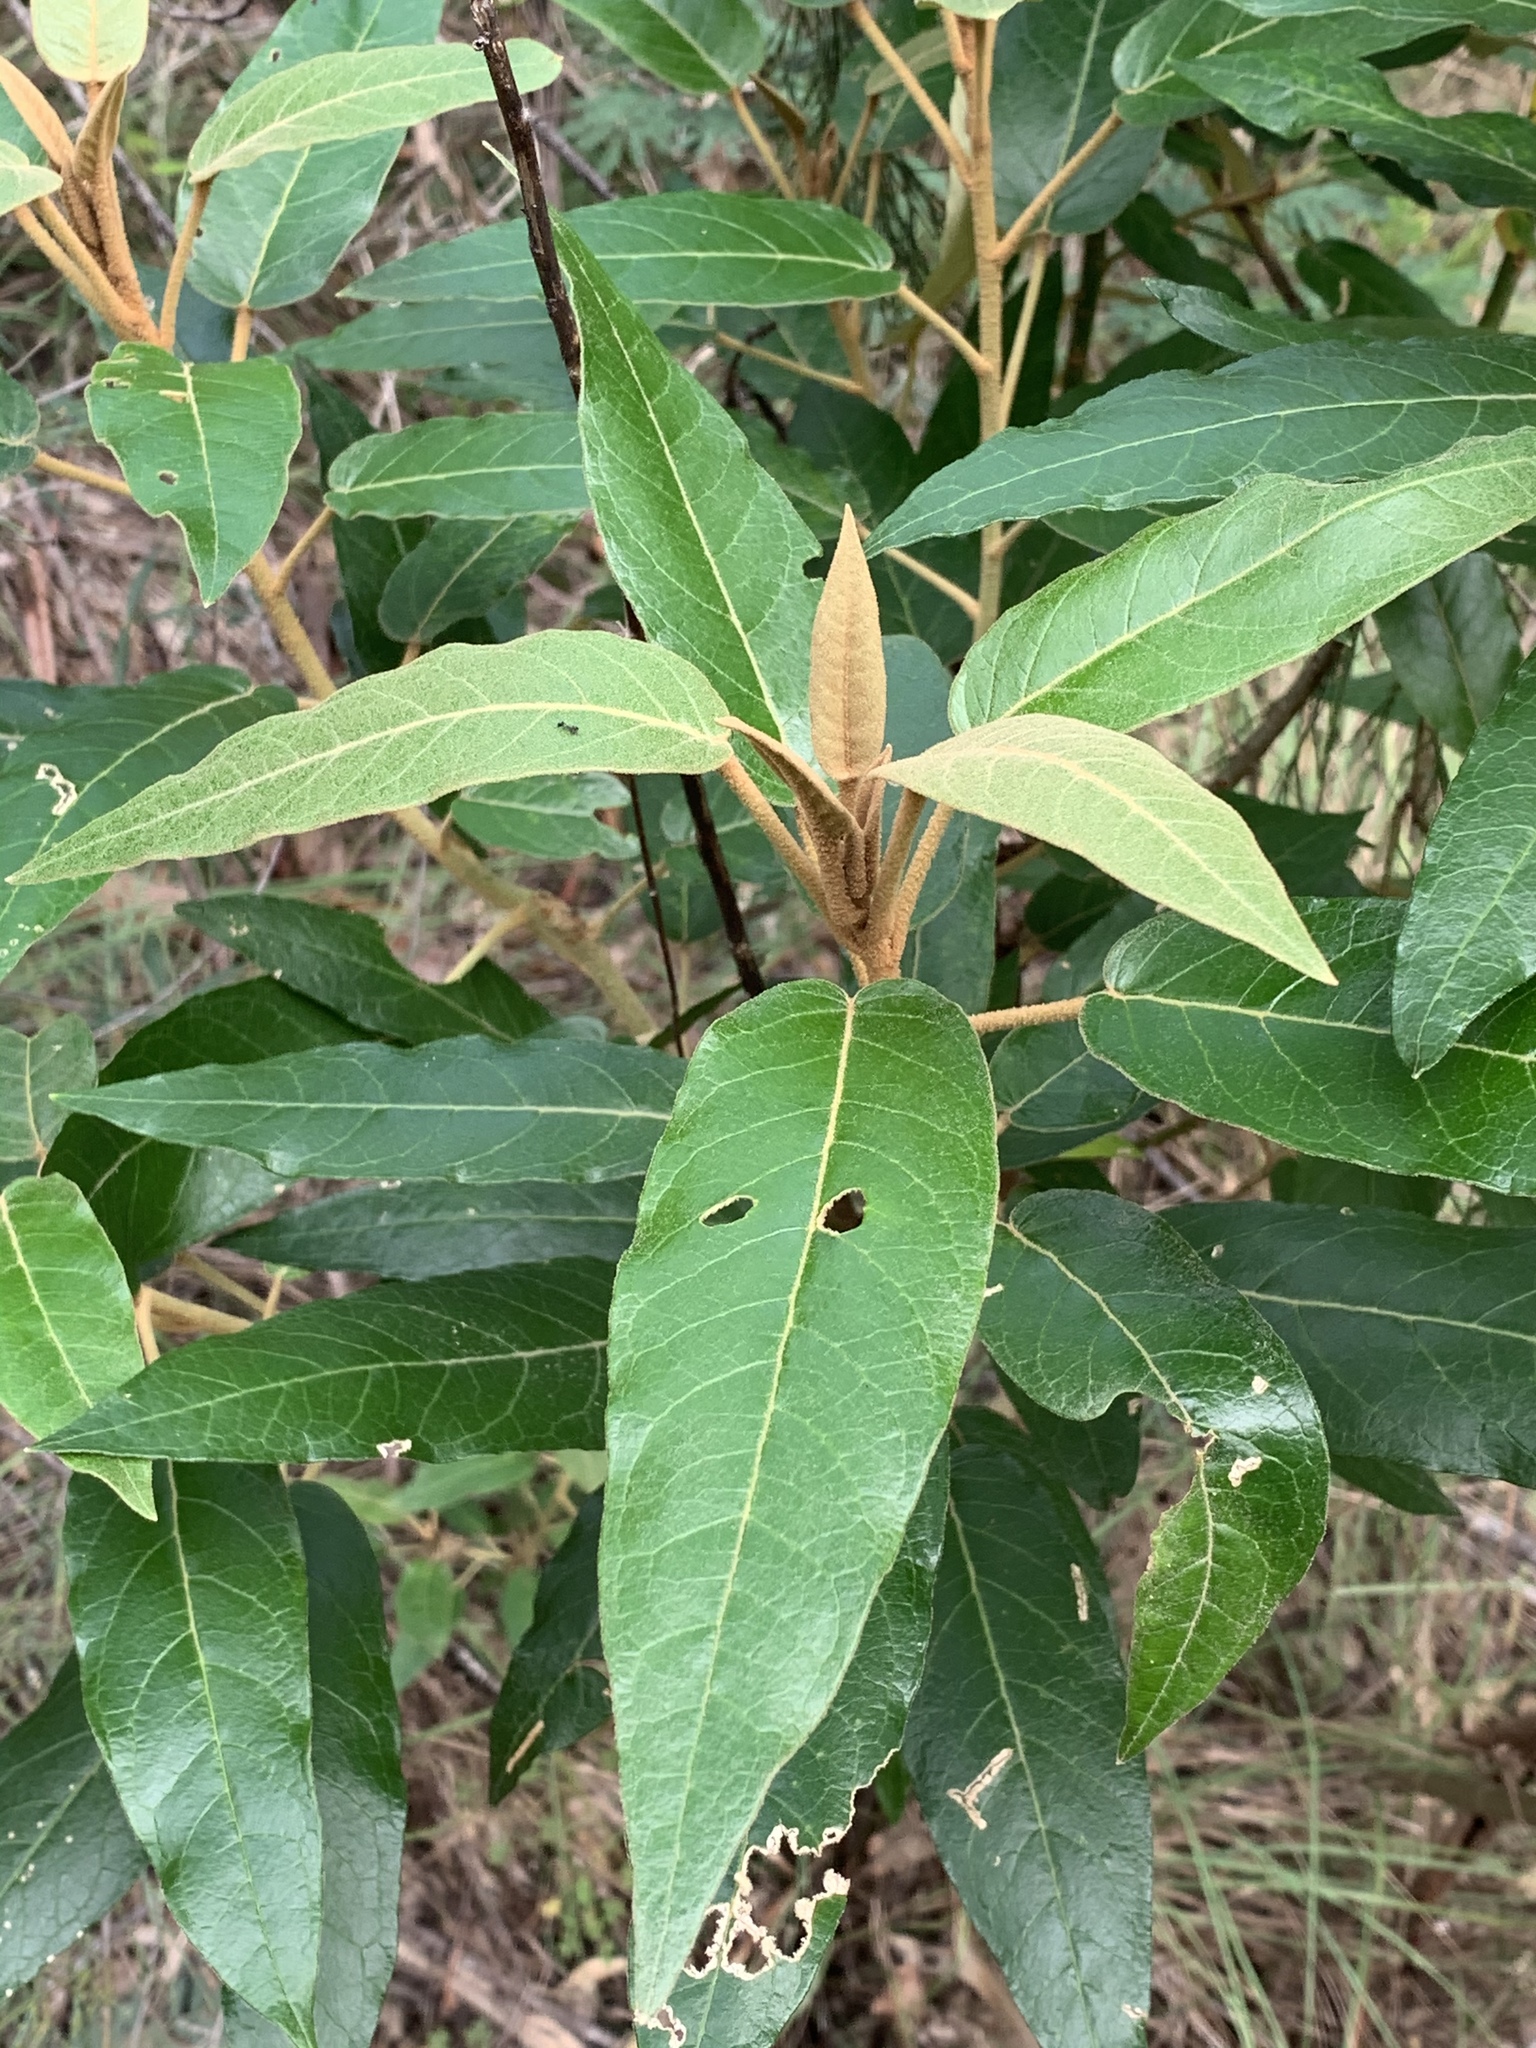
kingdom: Plantae
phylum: Tracheophyta
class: Magnoliopsida
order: Apiales
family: Araliaceae
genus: Astrotricha
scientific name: Astrotricha latifolia
